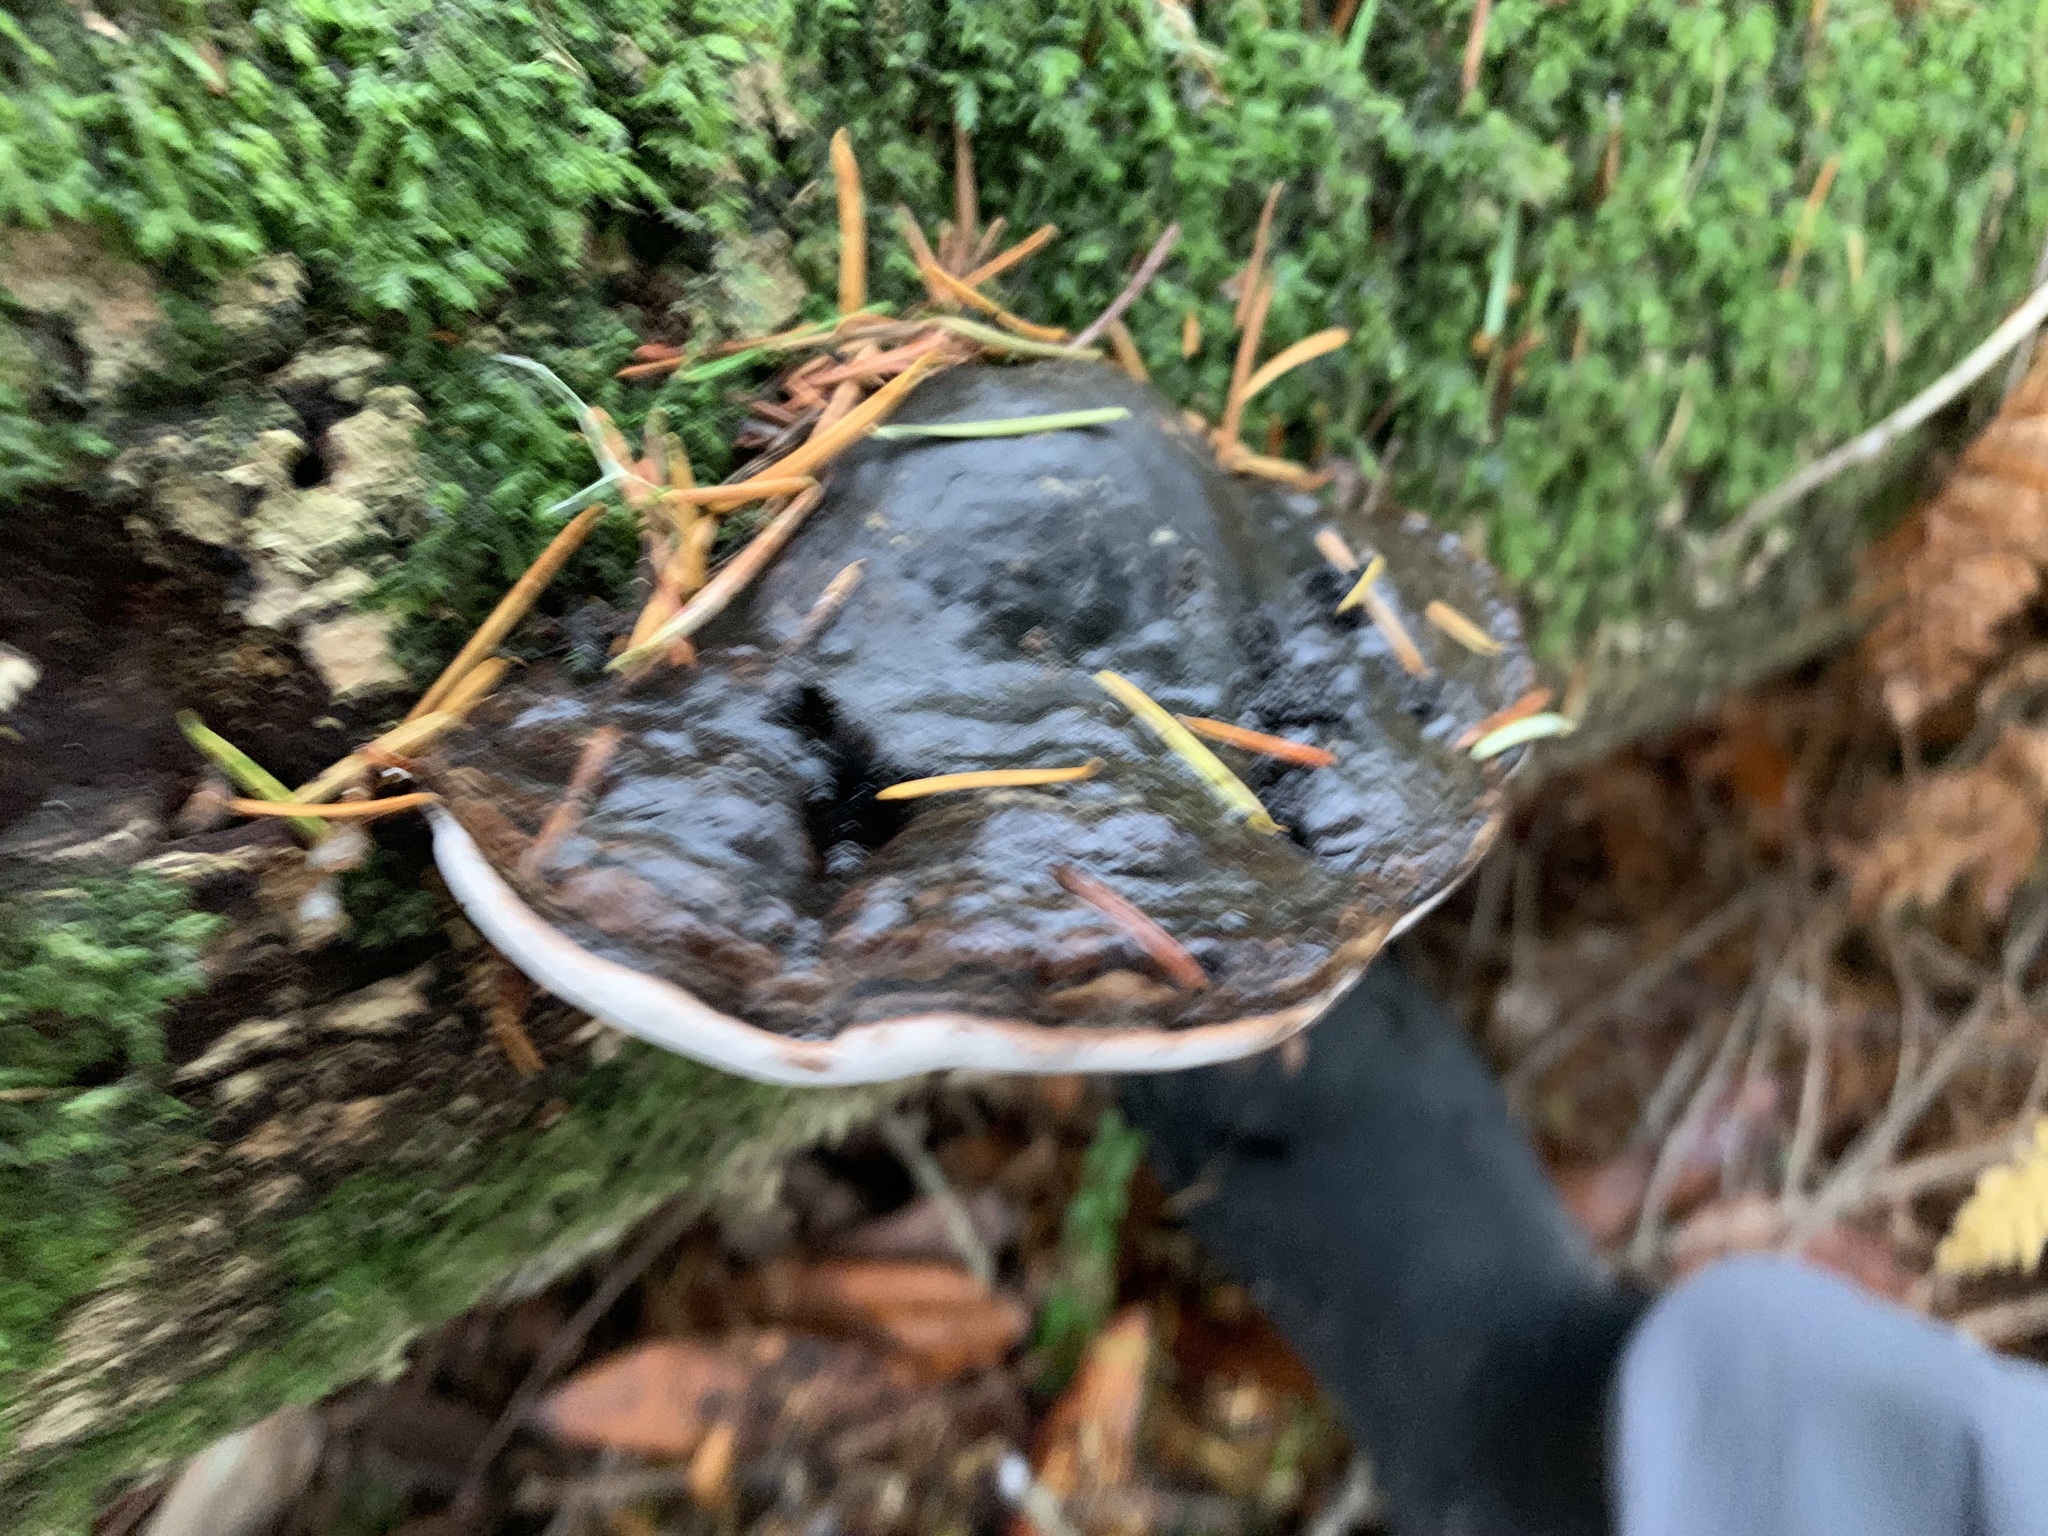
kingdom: Fungi
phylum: Basidiomycota
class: Agaricomycetes
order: Polyporales
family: Fomitopsidaceae
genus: Fomitopsis
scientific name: Fomitopsis ochracea
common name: American brown fomitopsis
